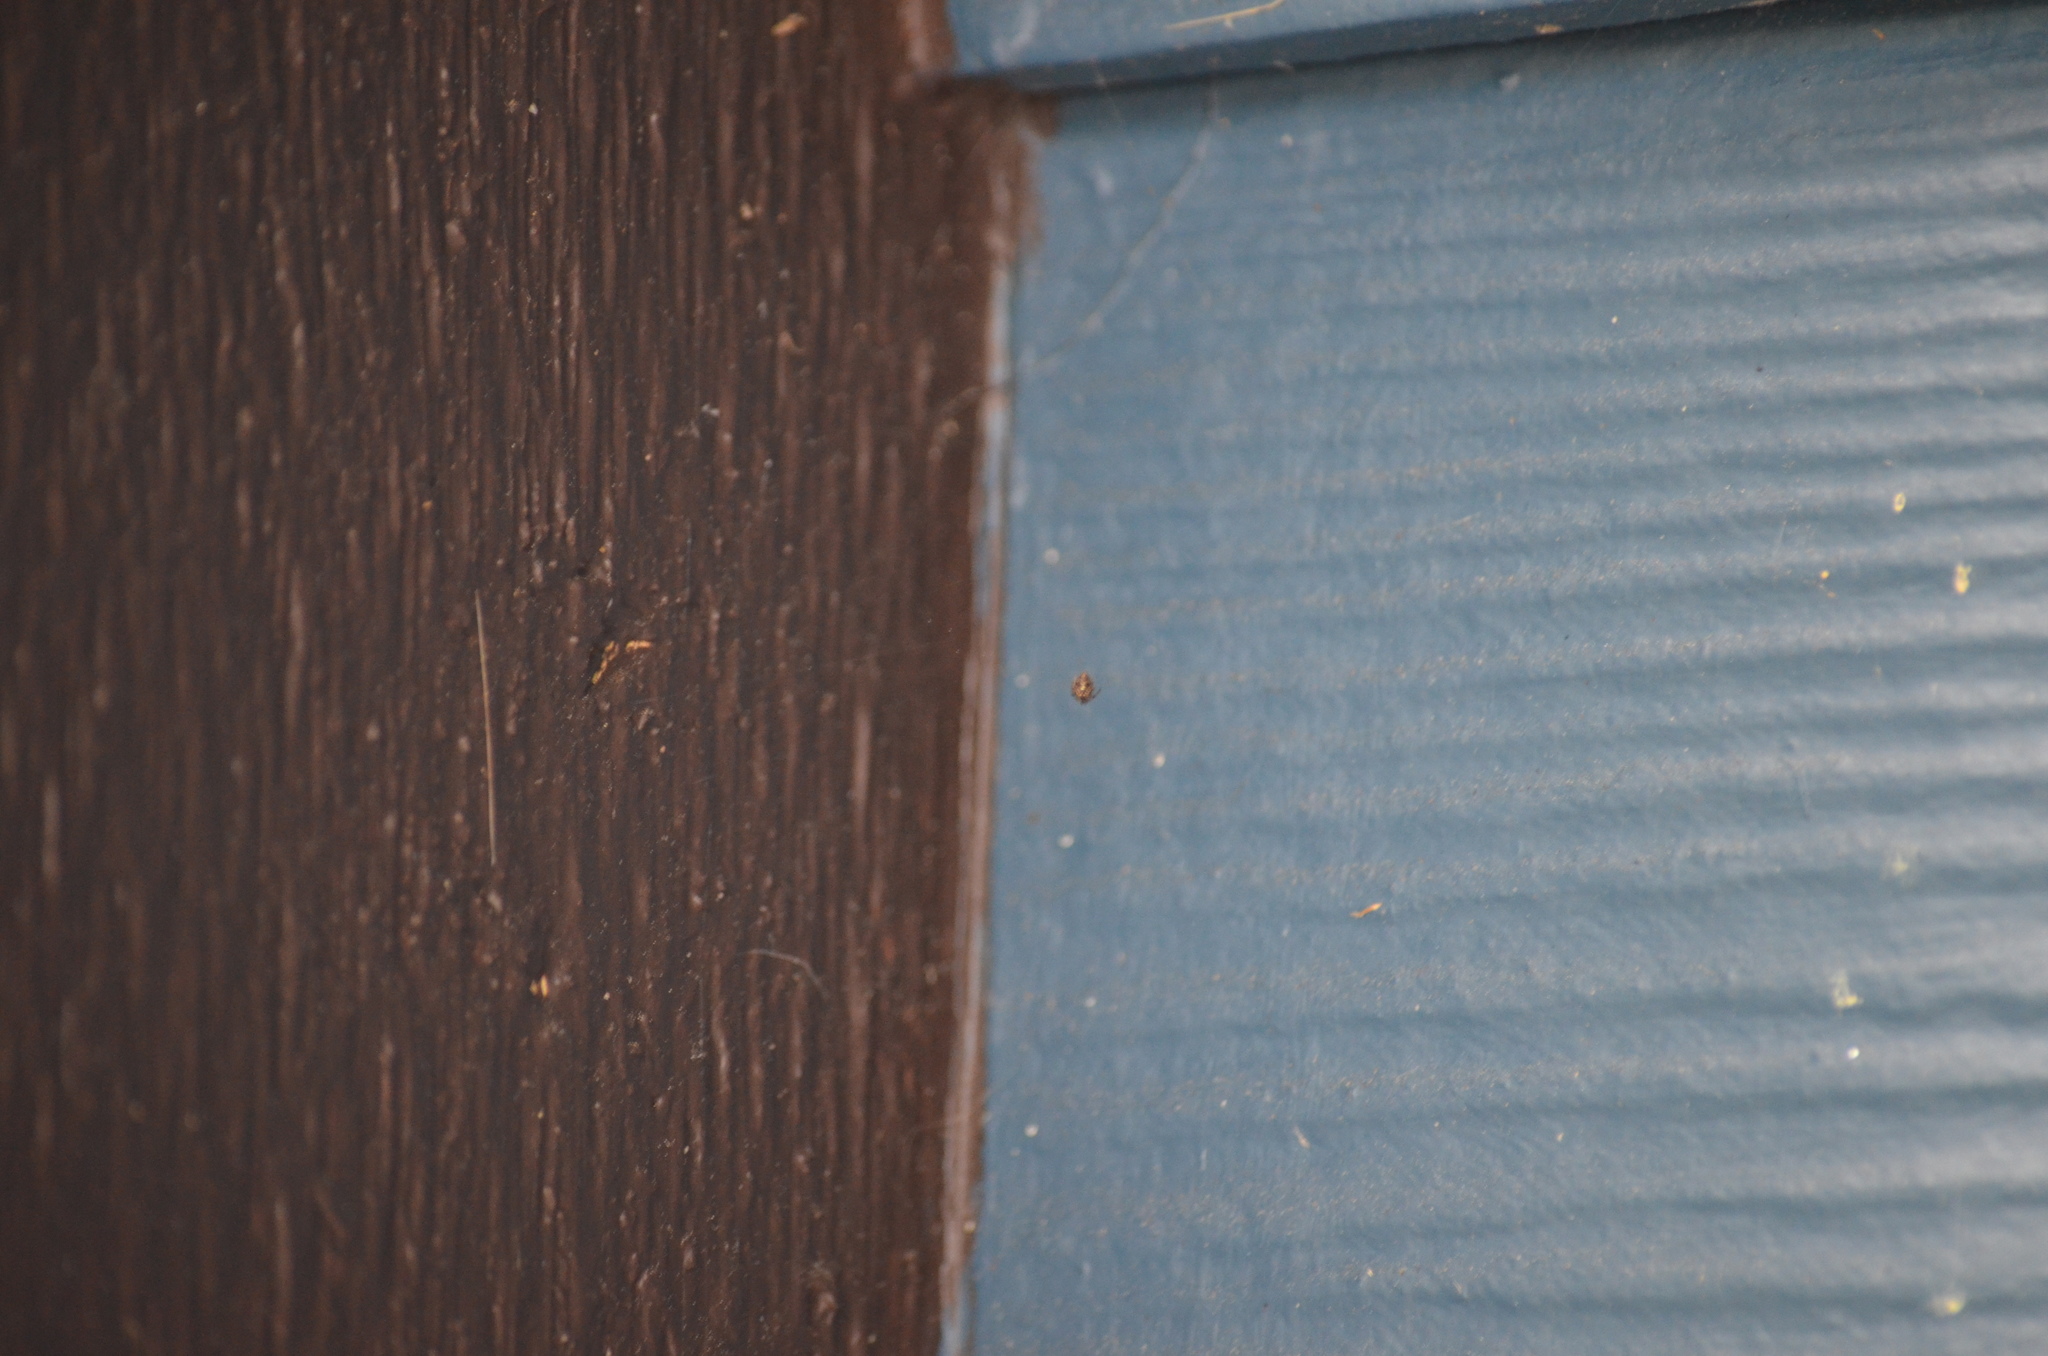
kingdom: Animalia
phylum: Arthropoda
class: Arachnida
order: Araneae
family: Theridiidae
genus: Parasteatoda
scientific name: Parasteatoda tepidariorum
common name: Common house spider
